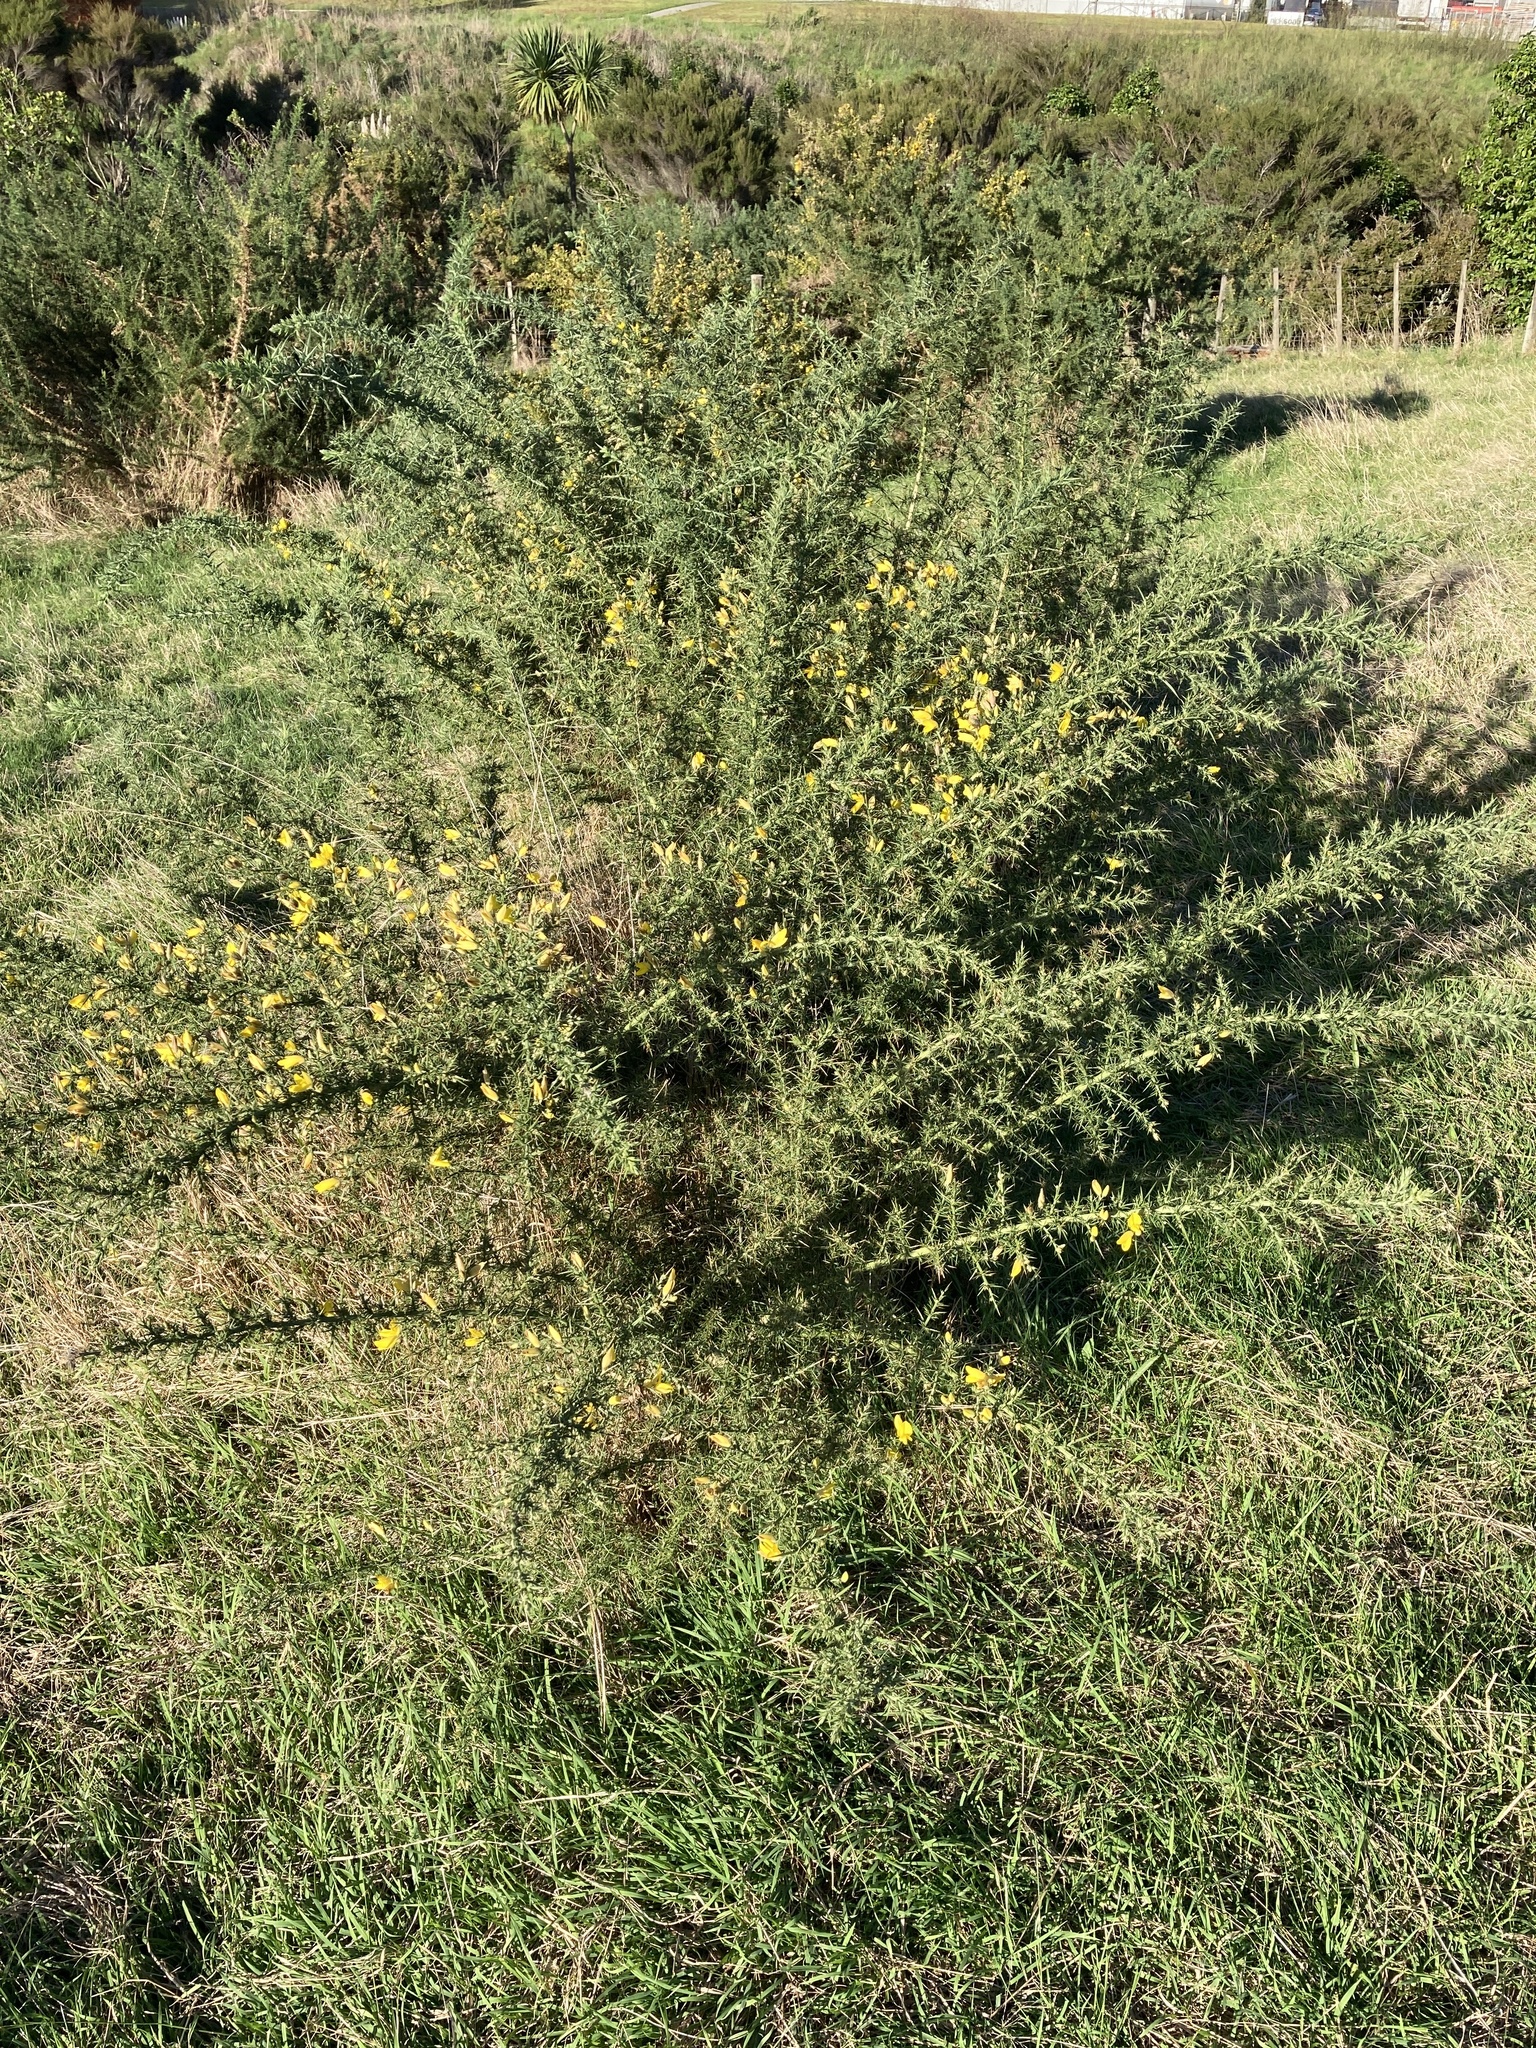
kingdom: Plantae
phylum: Tracheophyta
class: Magnoliopsida
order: Fabales
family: Fabaceae
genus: Ulex
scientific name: Ulex europaeus
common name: Common gorse
